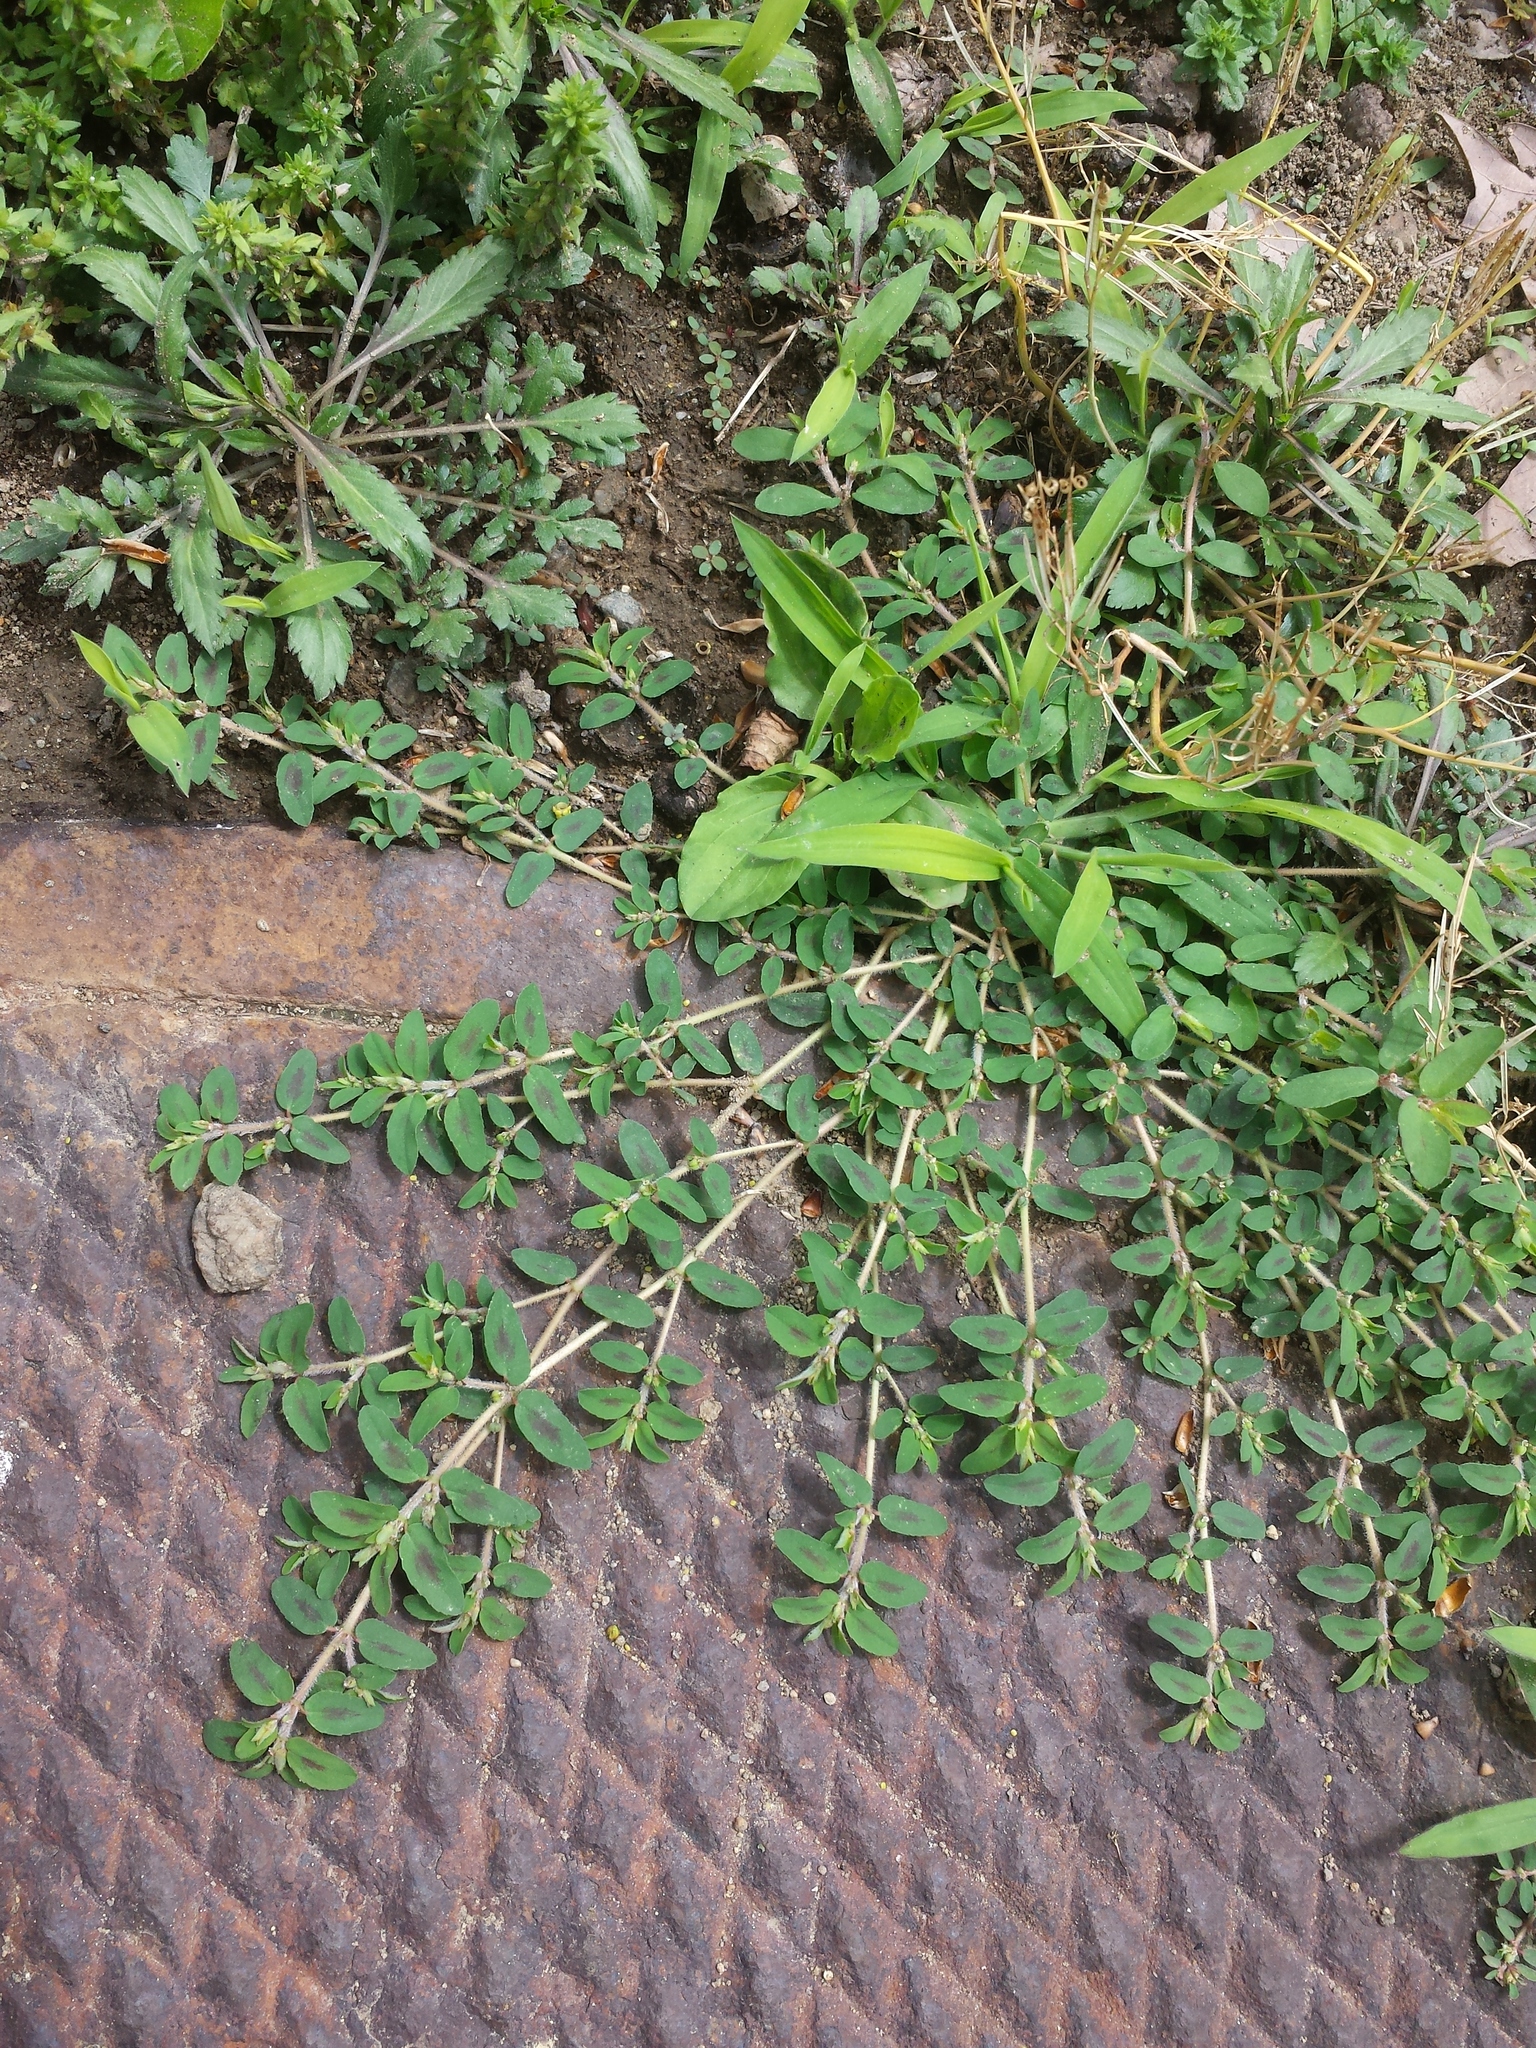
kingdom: Plantae
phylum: Tracheophyta
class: Magnoliopsida
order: Malpighiales
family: Euphorbiaceae
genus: Euphorbia
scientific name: Euphorbia maculata
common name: Spotted spurge
